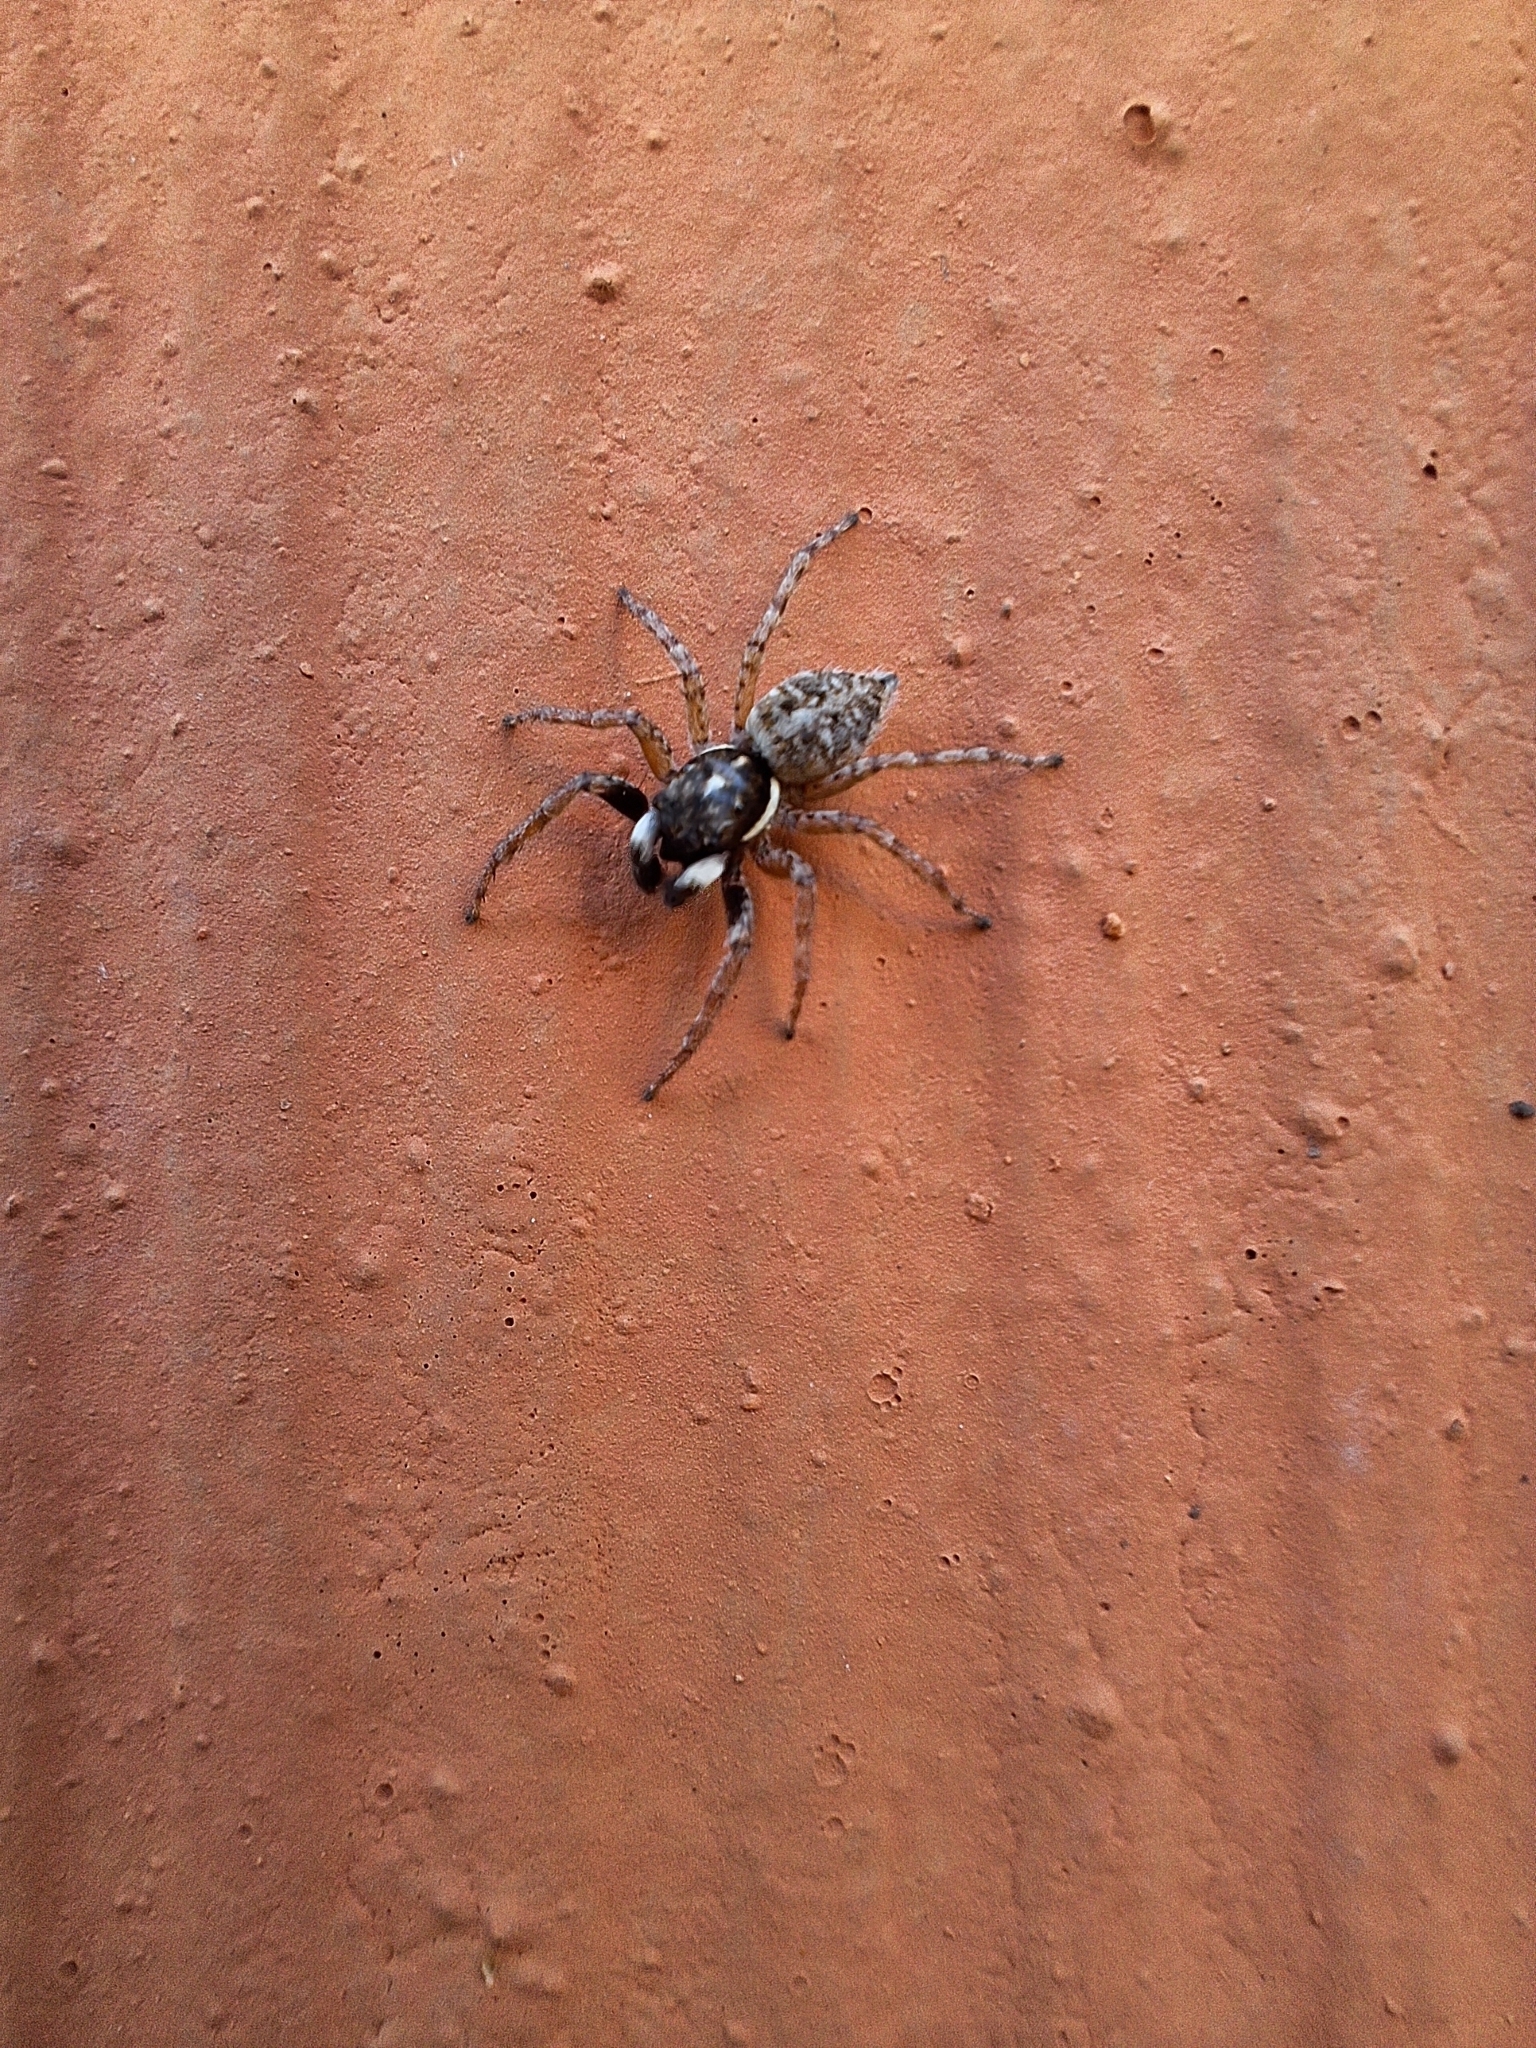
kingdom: Animalia
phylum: Arthropoda
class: Arachnida
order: Araneae
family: Salticidae
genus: Menemerus
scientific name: Menemerus semilimbatus
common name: Jumping spider
